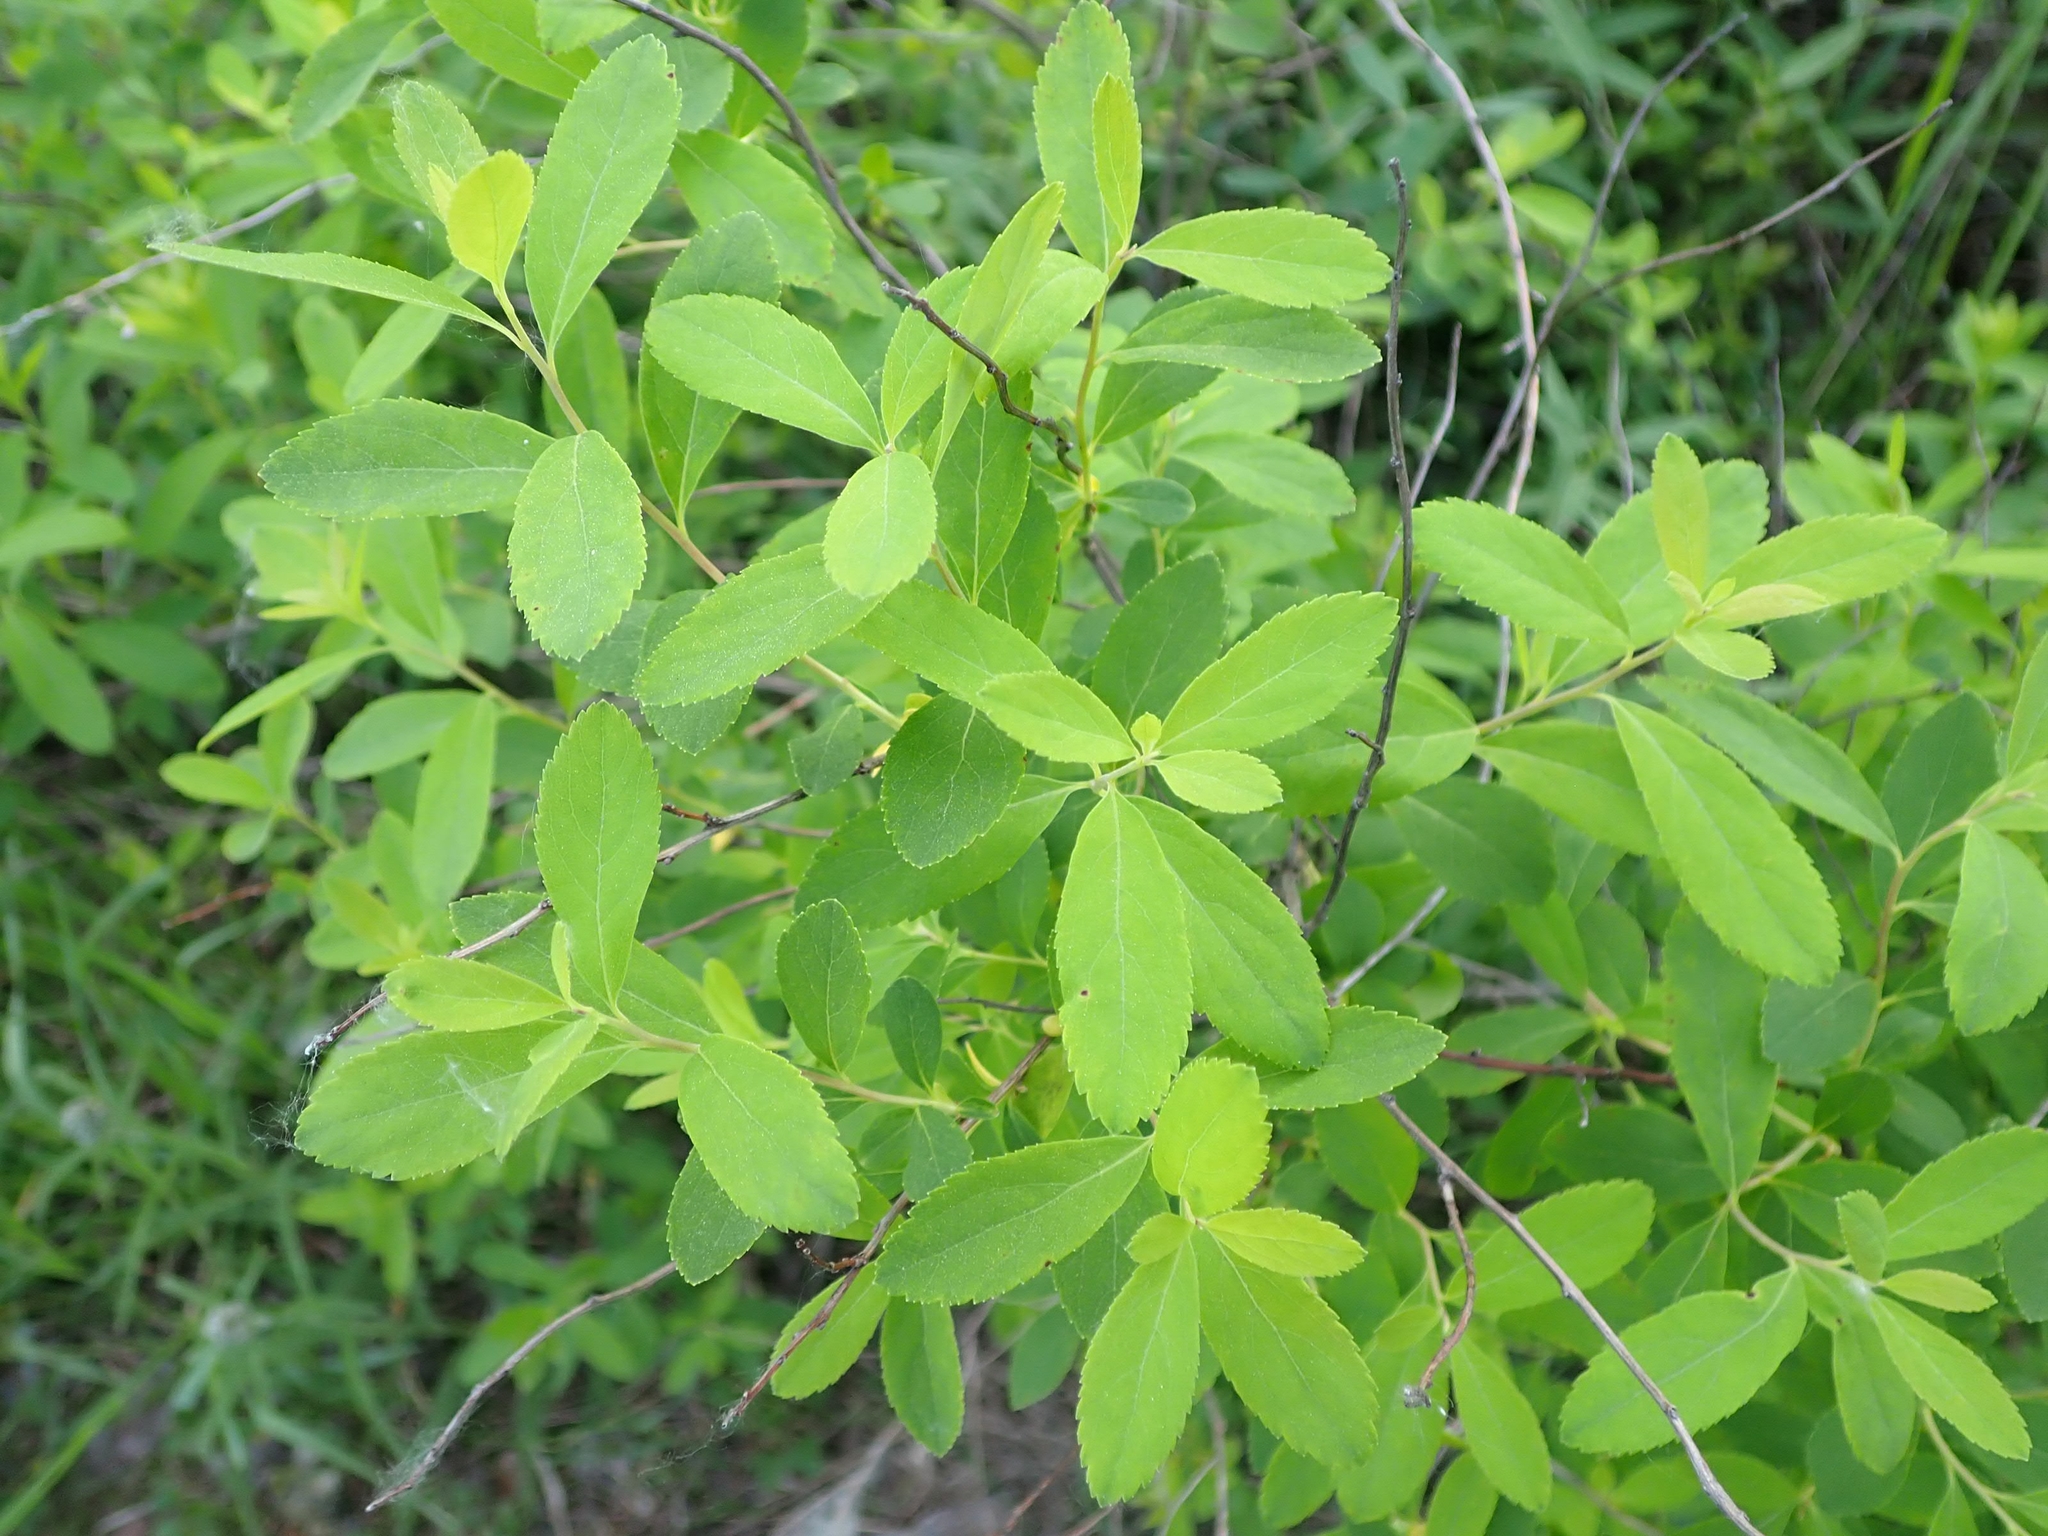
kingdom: Plantae
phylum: Tracheophyta
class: Magnoliopsida
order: Rosales
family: Rosaceae
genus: Spiraea
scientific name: Spiraea alba
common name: Pale bridewort
